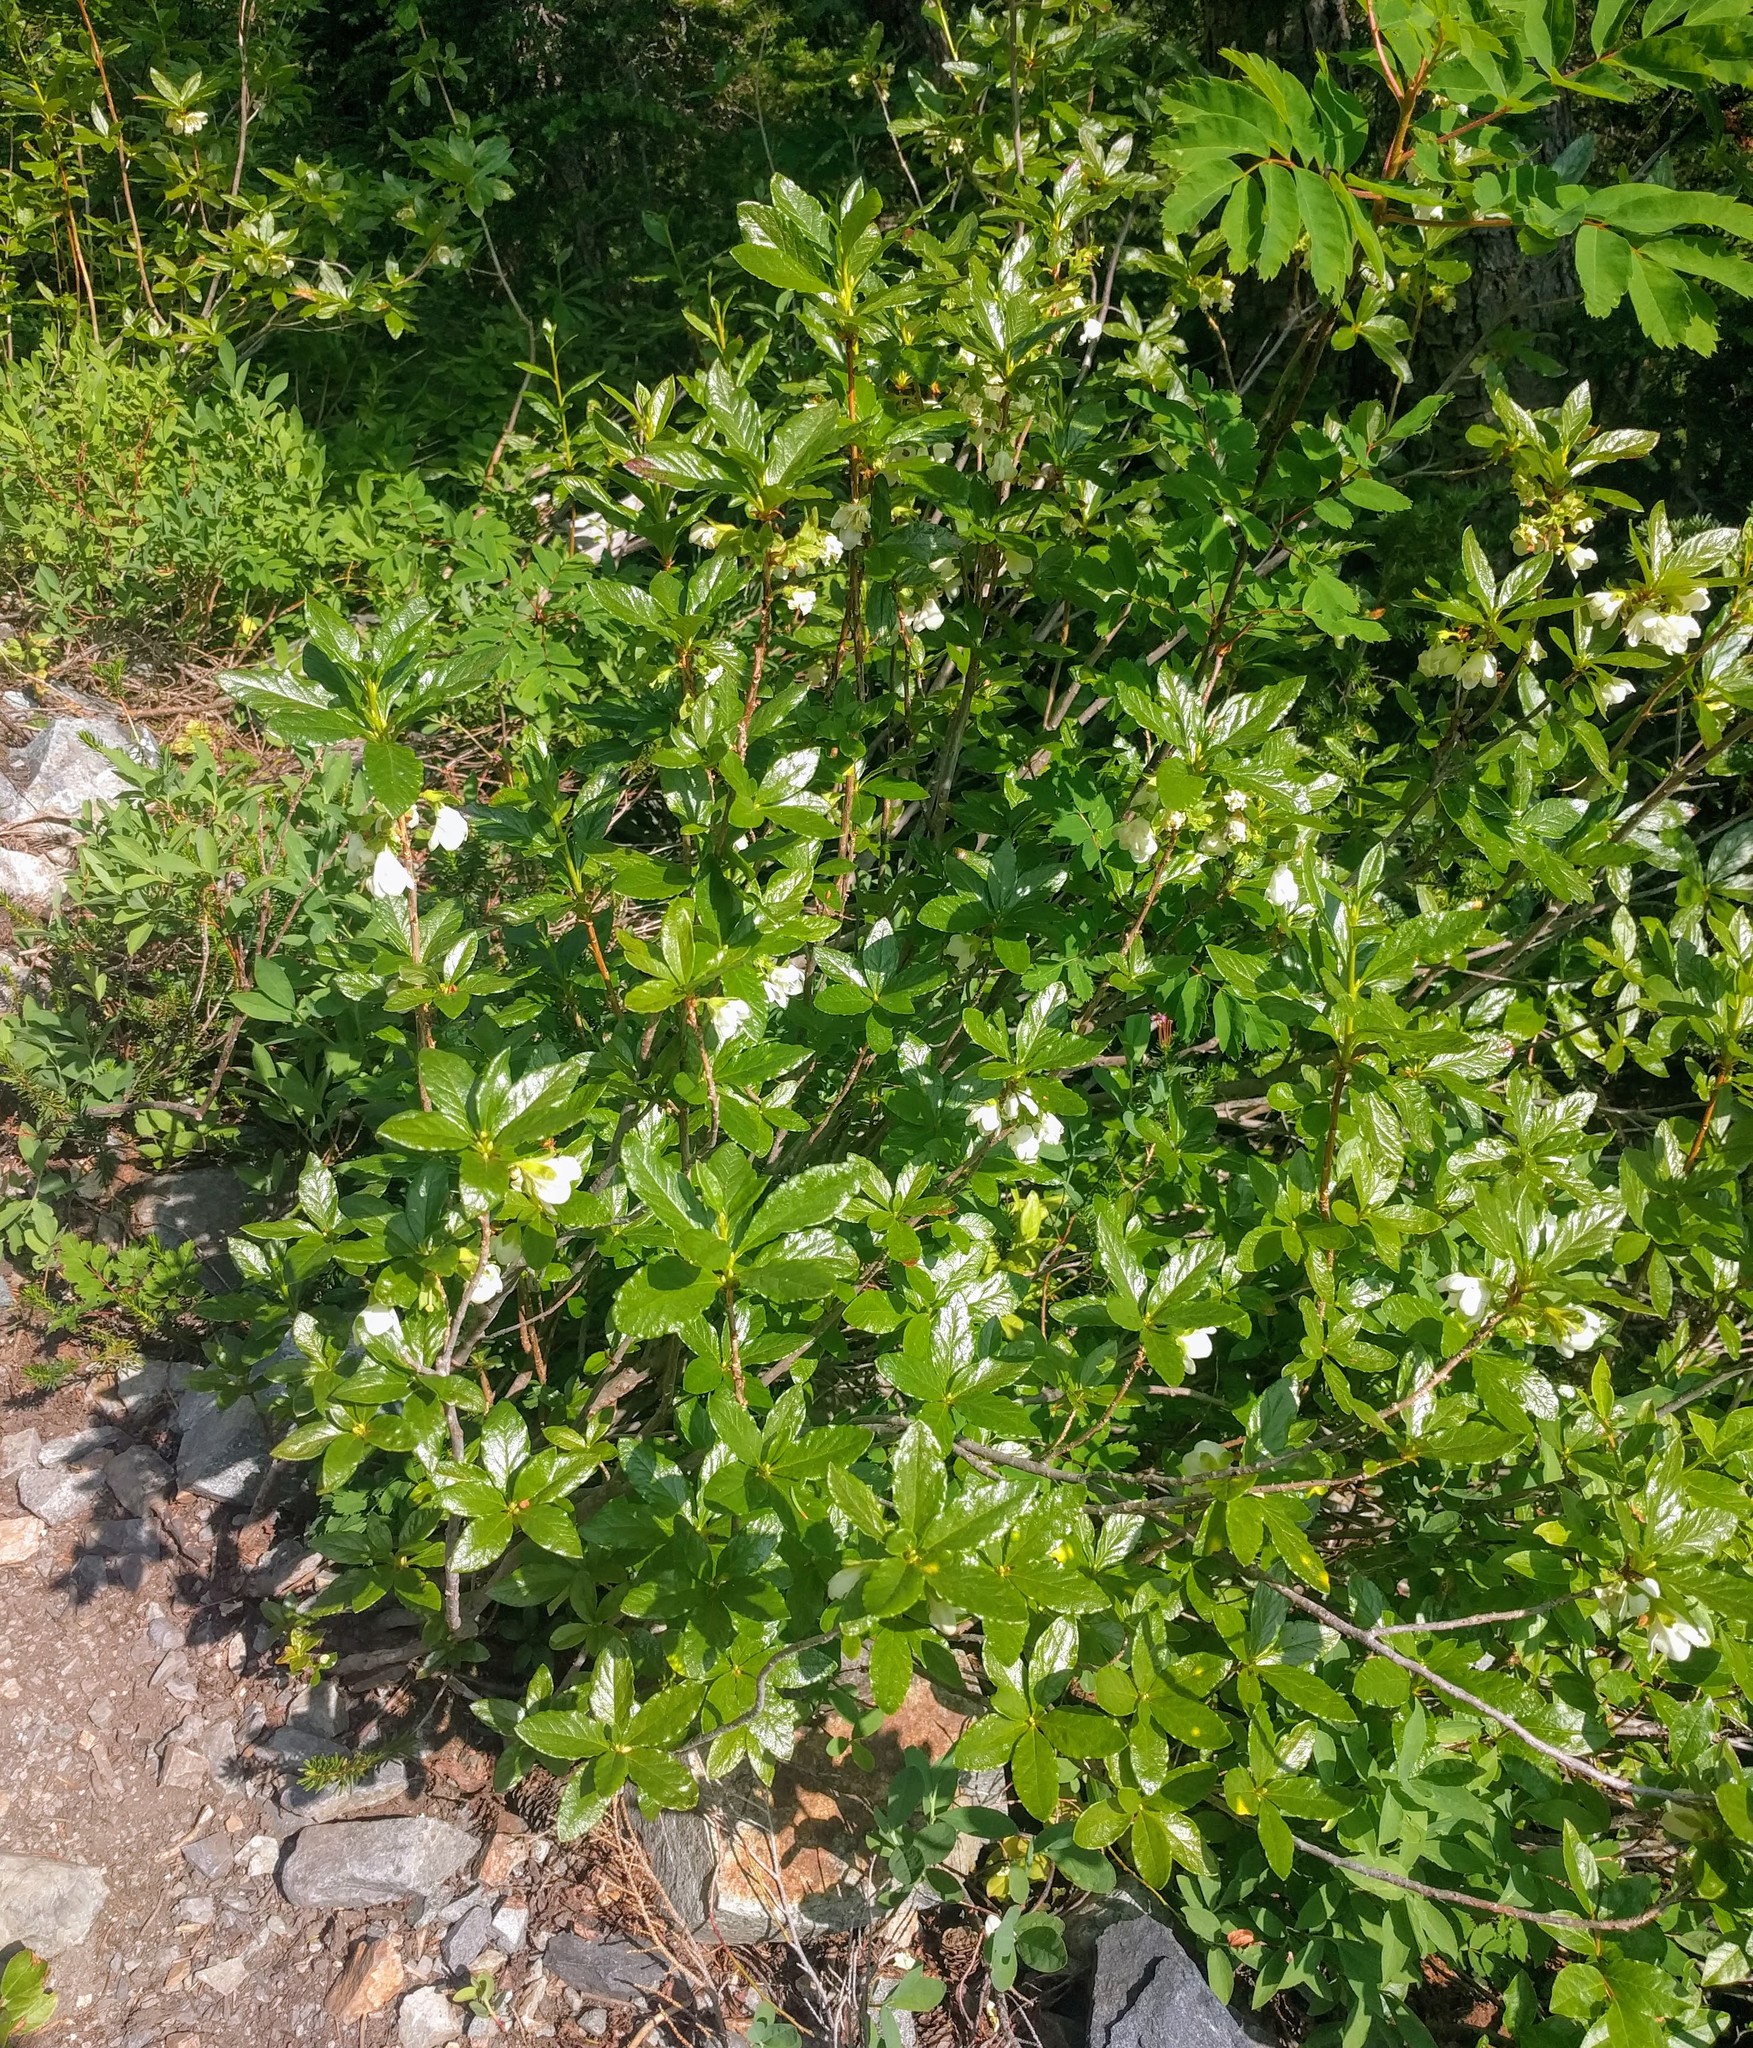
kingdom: Plantae
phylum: Tracheophyta
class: Magnoliopsida
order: Ericales
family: Ericaceae
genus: Rhododendron
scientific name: Rhododendron albiflorum
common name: White rhododendron
